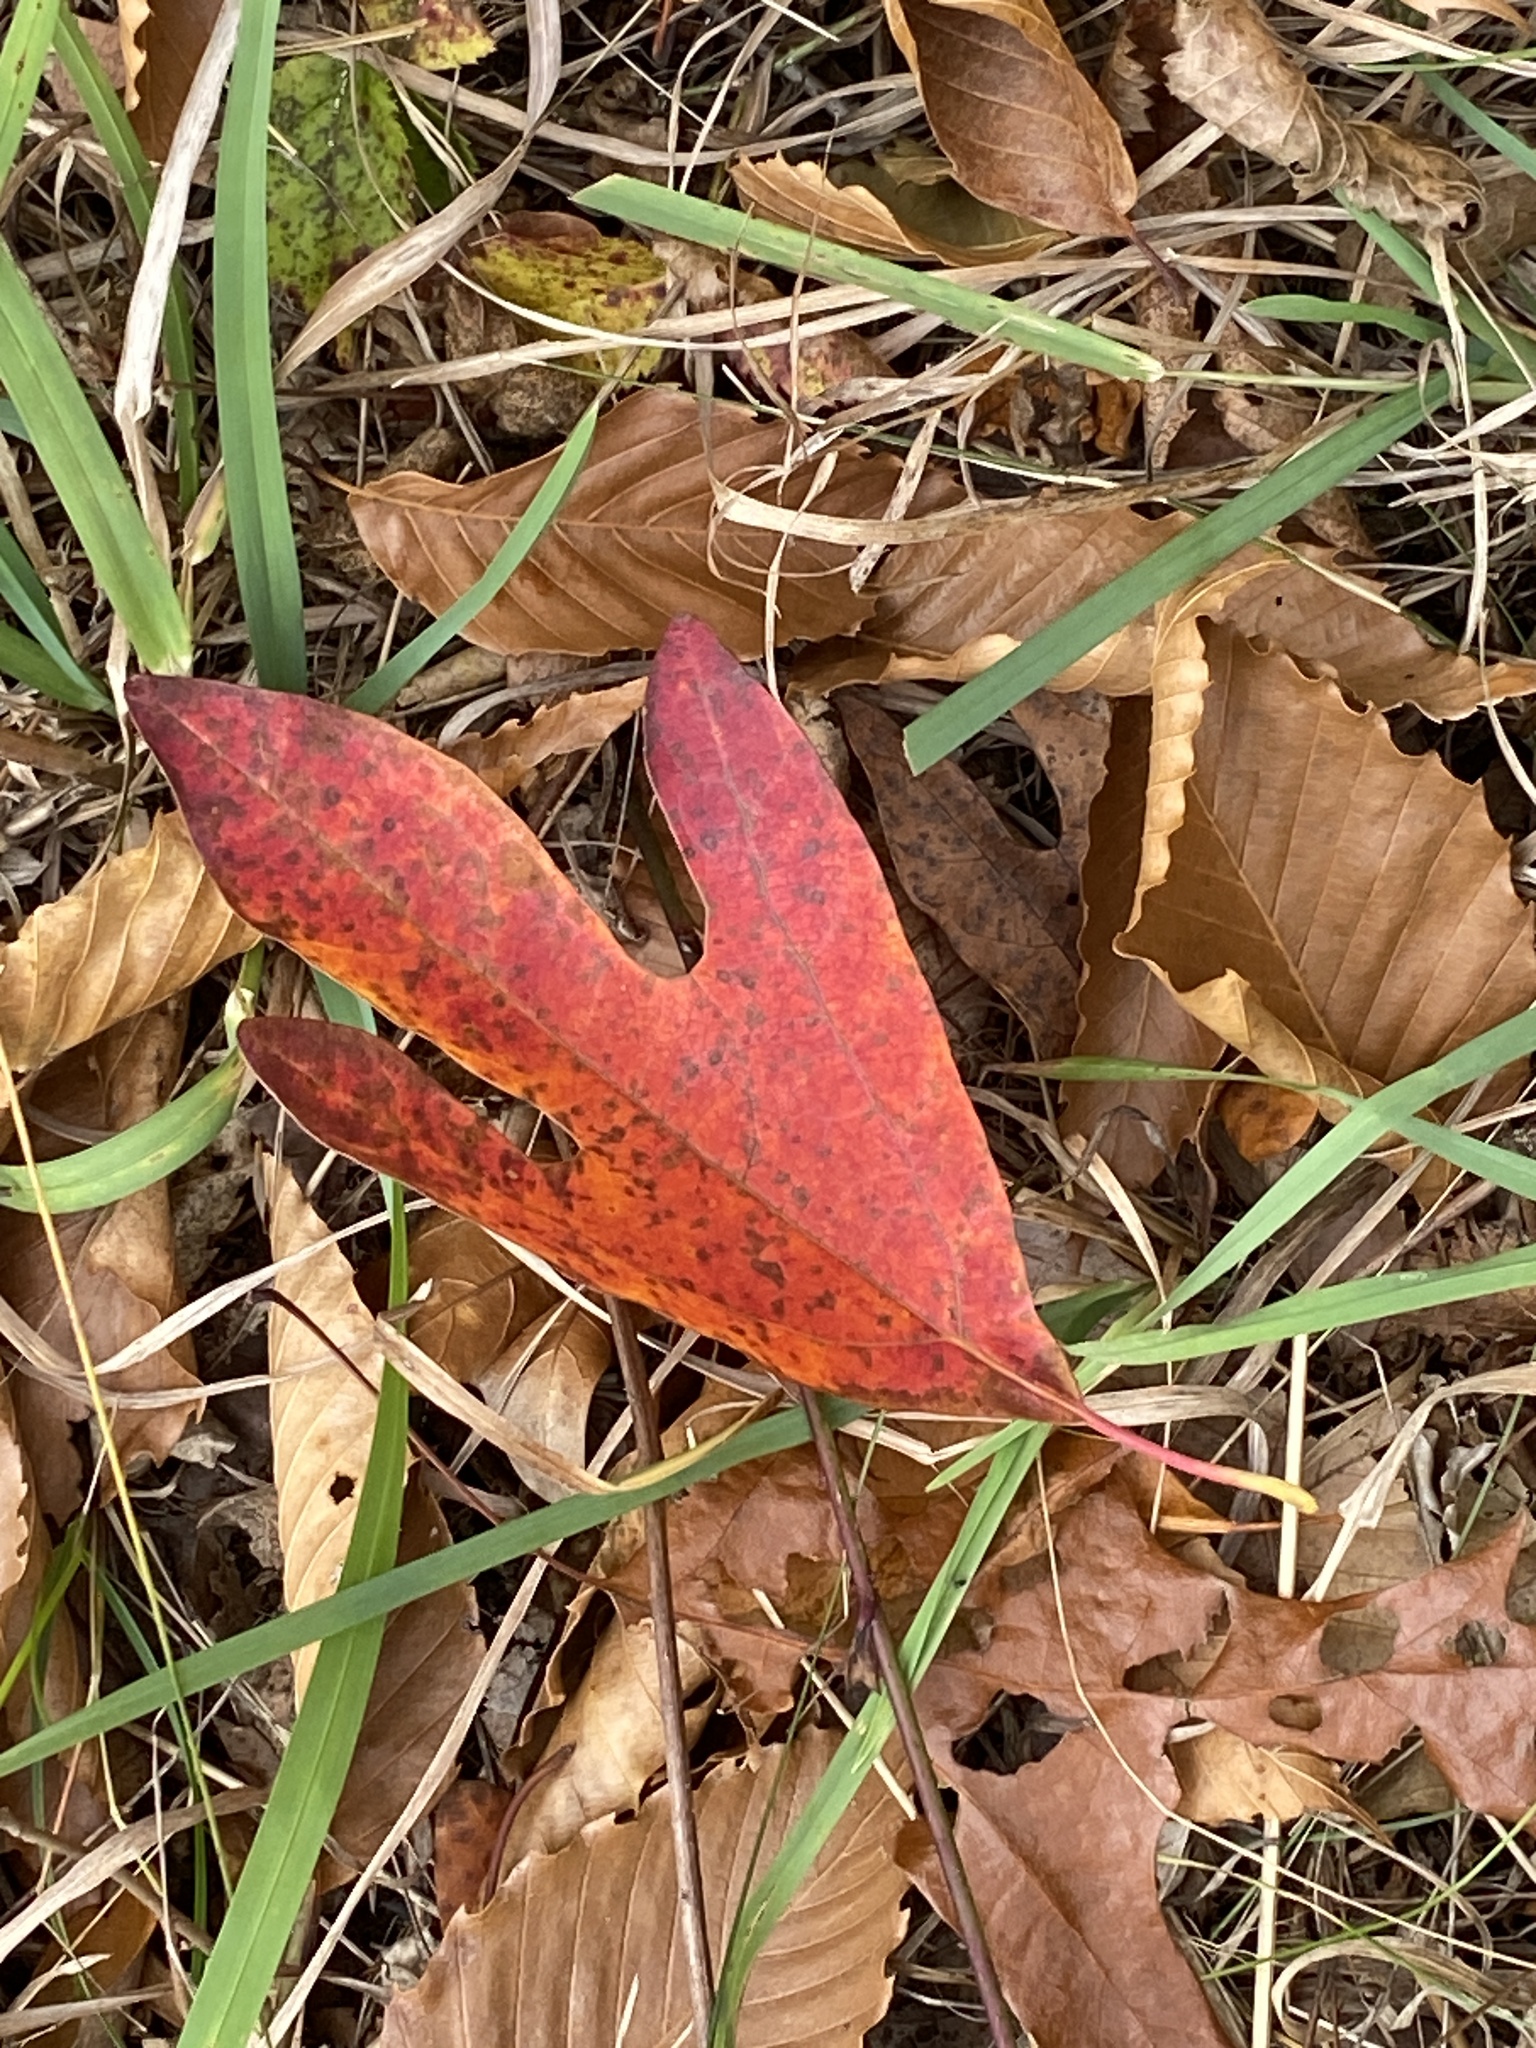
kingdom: Plantae
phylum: Tracheophyta
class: Magnoliopsida
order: Laurales
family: Lauraceae
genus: Sassafras
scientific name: Sassafras albidum
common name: Sassafras
